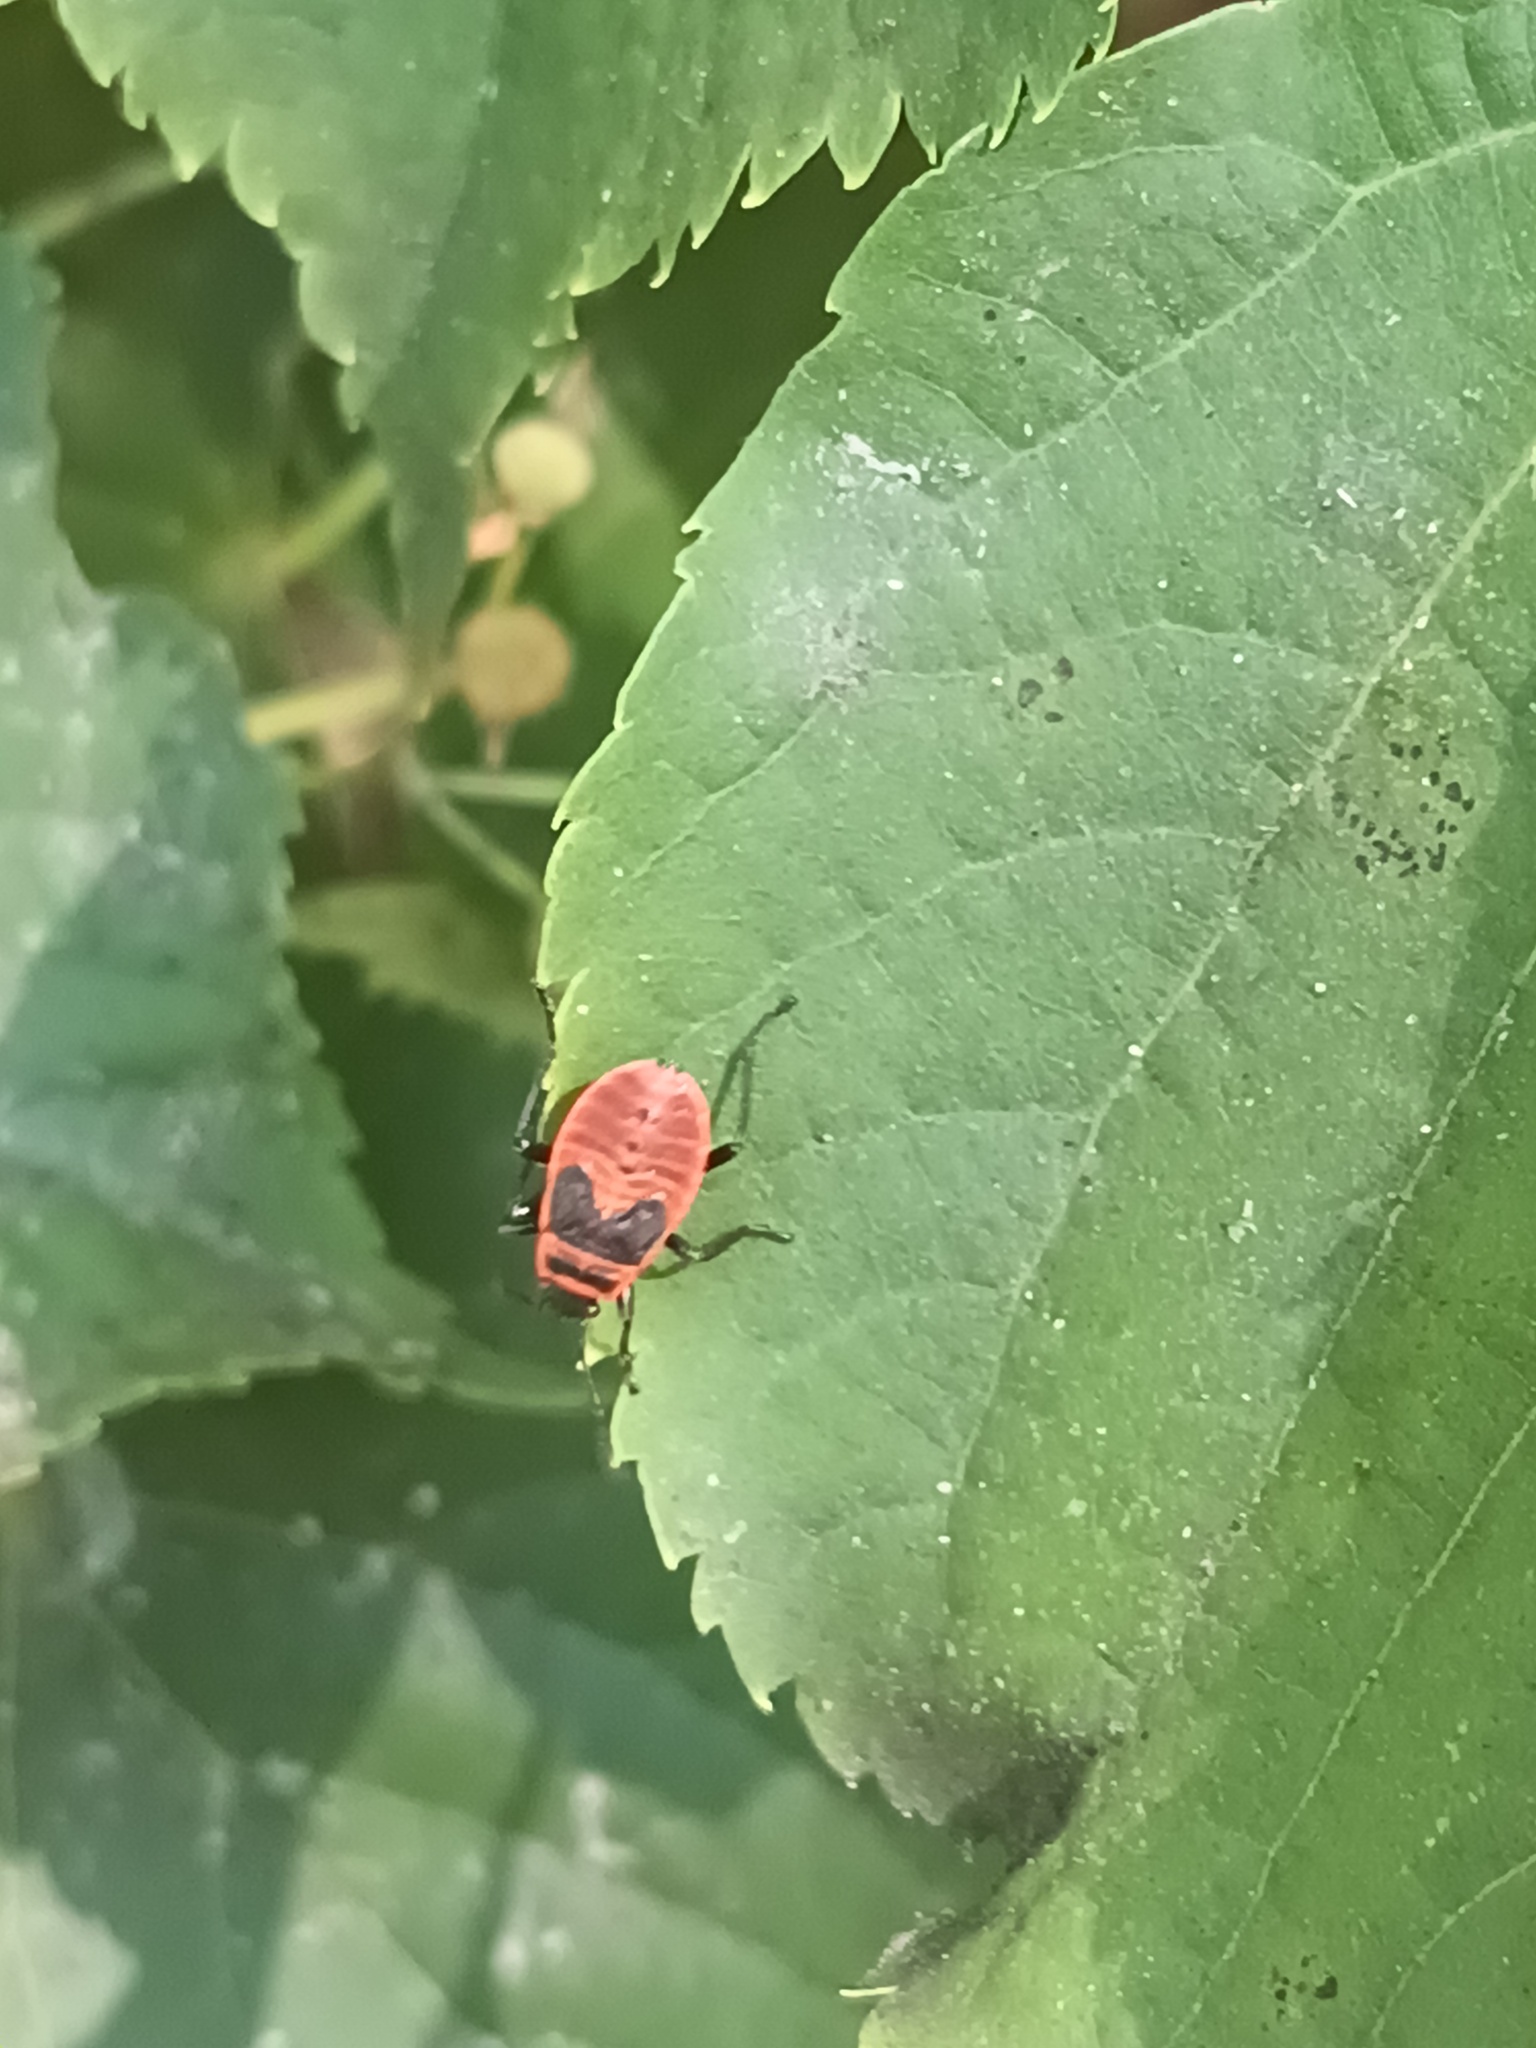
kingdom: Animalia
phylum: Arthropoda
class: Insecta
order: Hemiptera
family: Pyrrhocoridae
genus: Pyrrhocoris
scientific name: Pyrrhocoris apterus
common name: Firebug
